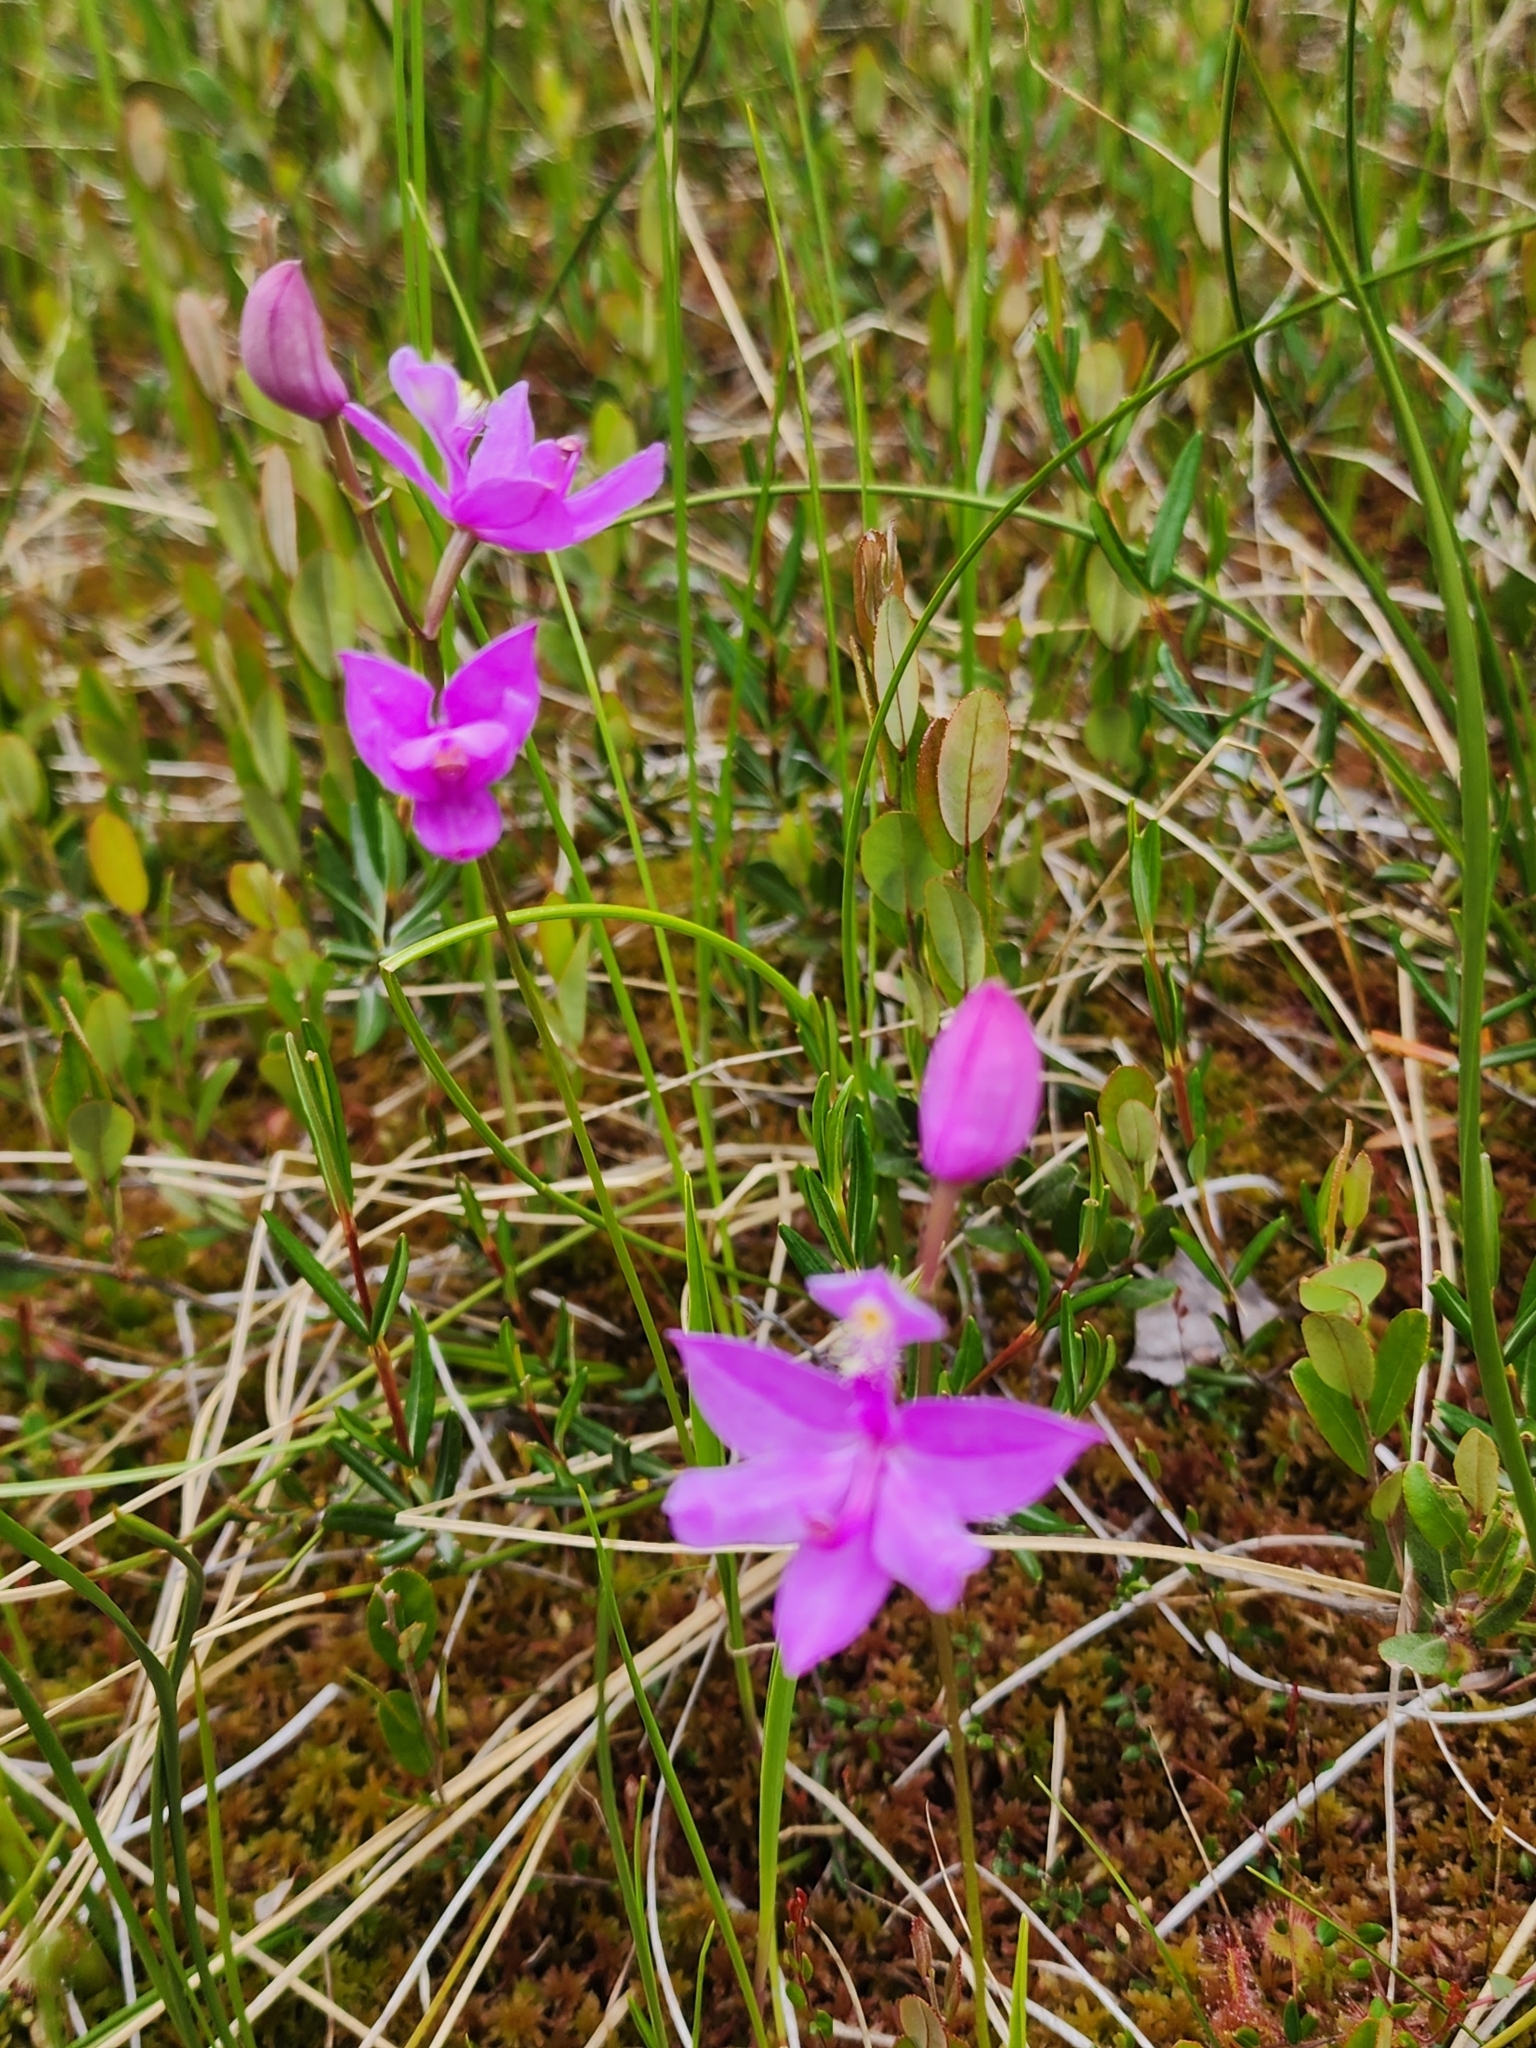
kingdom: Plantae
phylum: Tracheophyta
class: Liliopsida
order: Asparagales
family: Orchidaceae
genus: Calopogon
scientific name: Calopogon tuberosus
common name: Grass-pink
